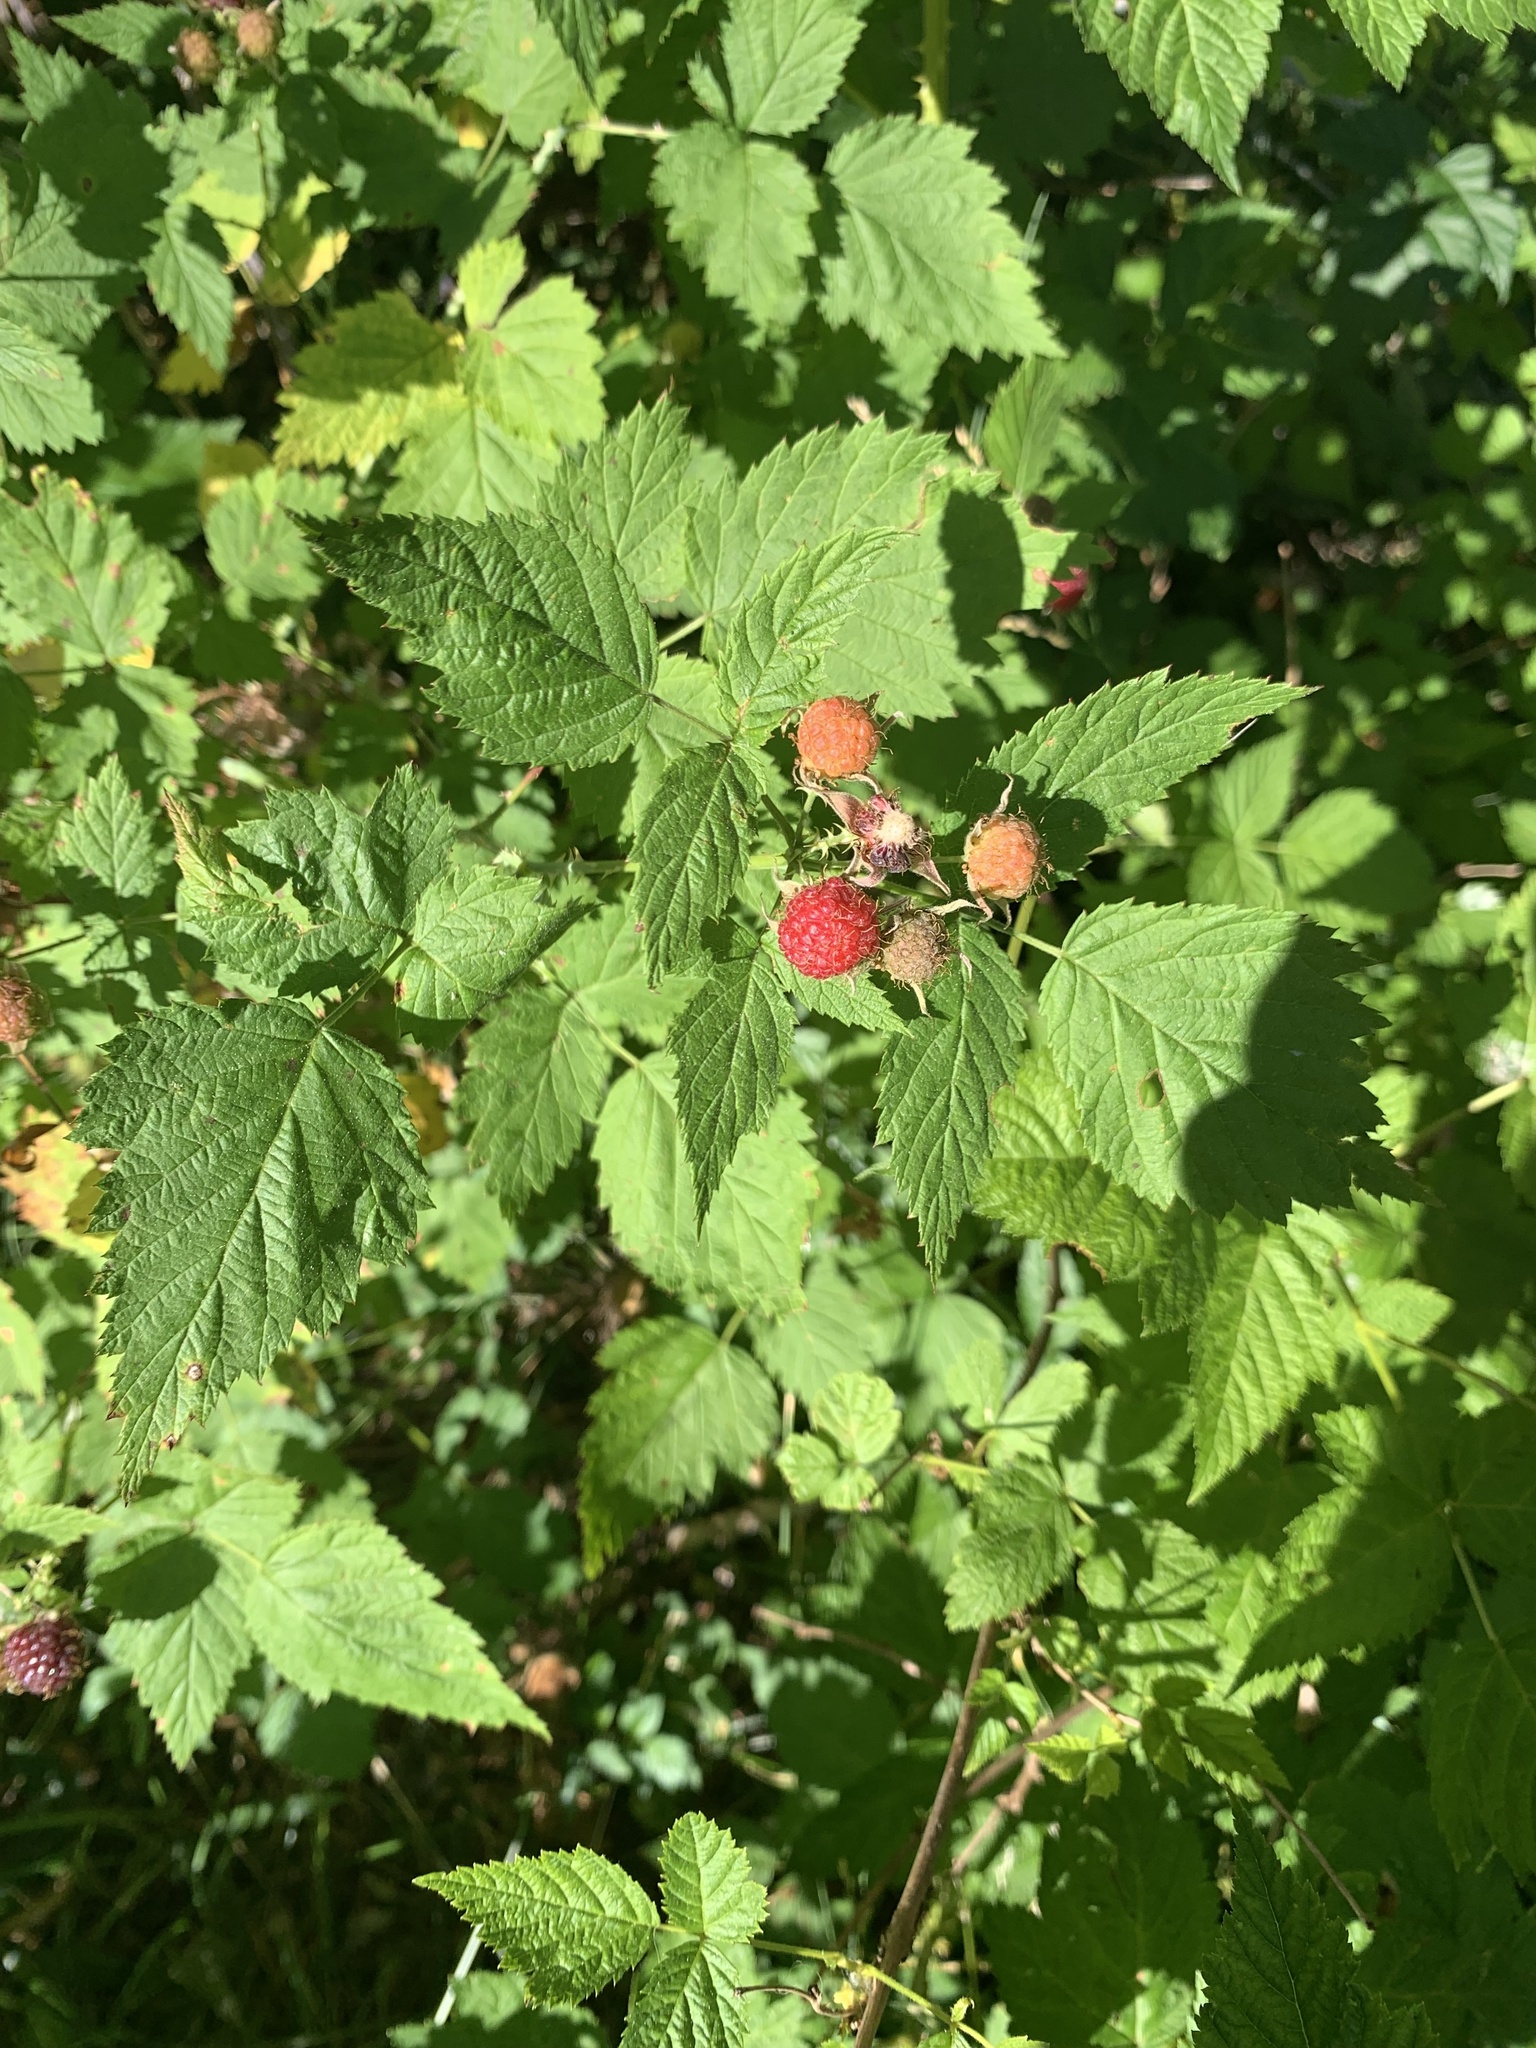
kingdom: Plantae
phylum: Tracheophyta
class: Magnoliopsida
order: Rosales
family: Rosaceae
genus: Rubus
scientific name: Rubus leucodermis
